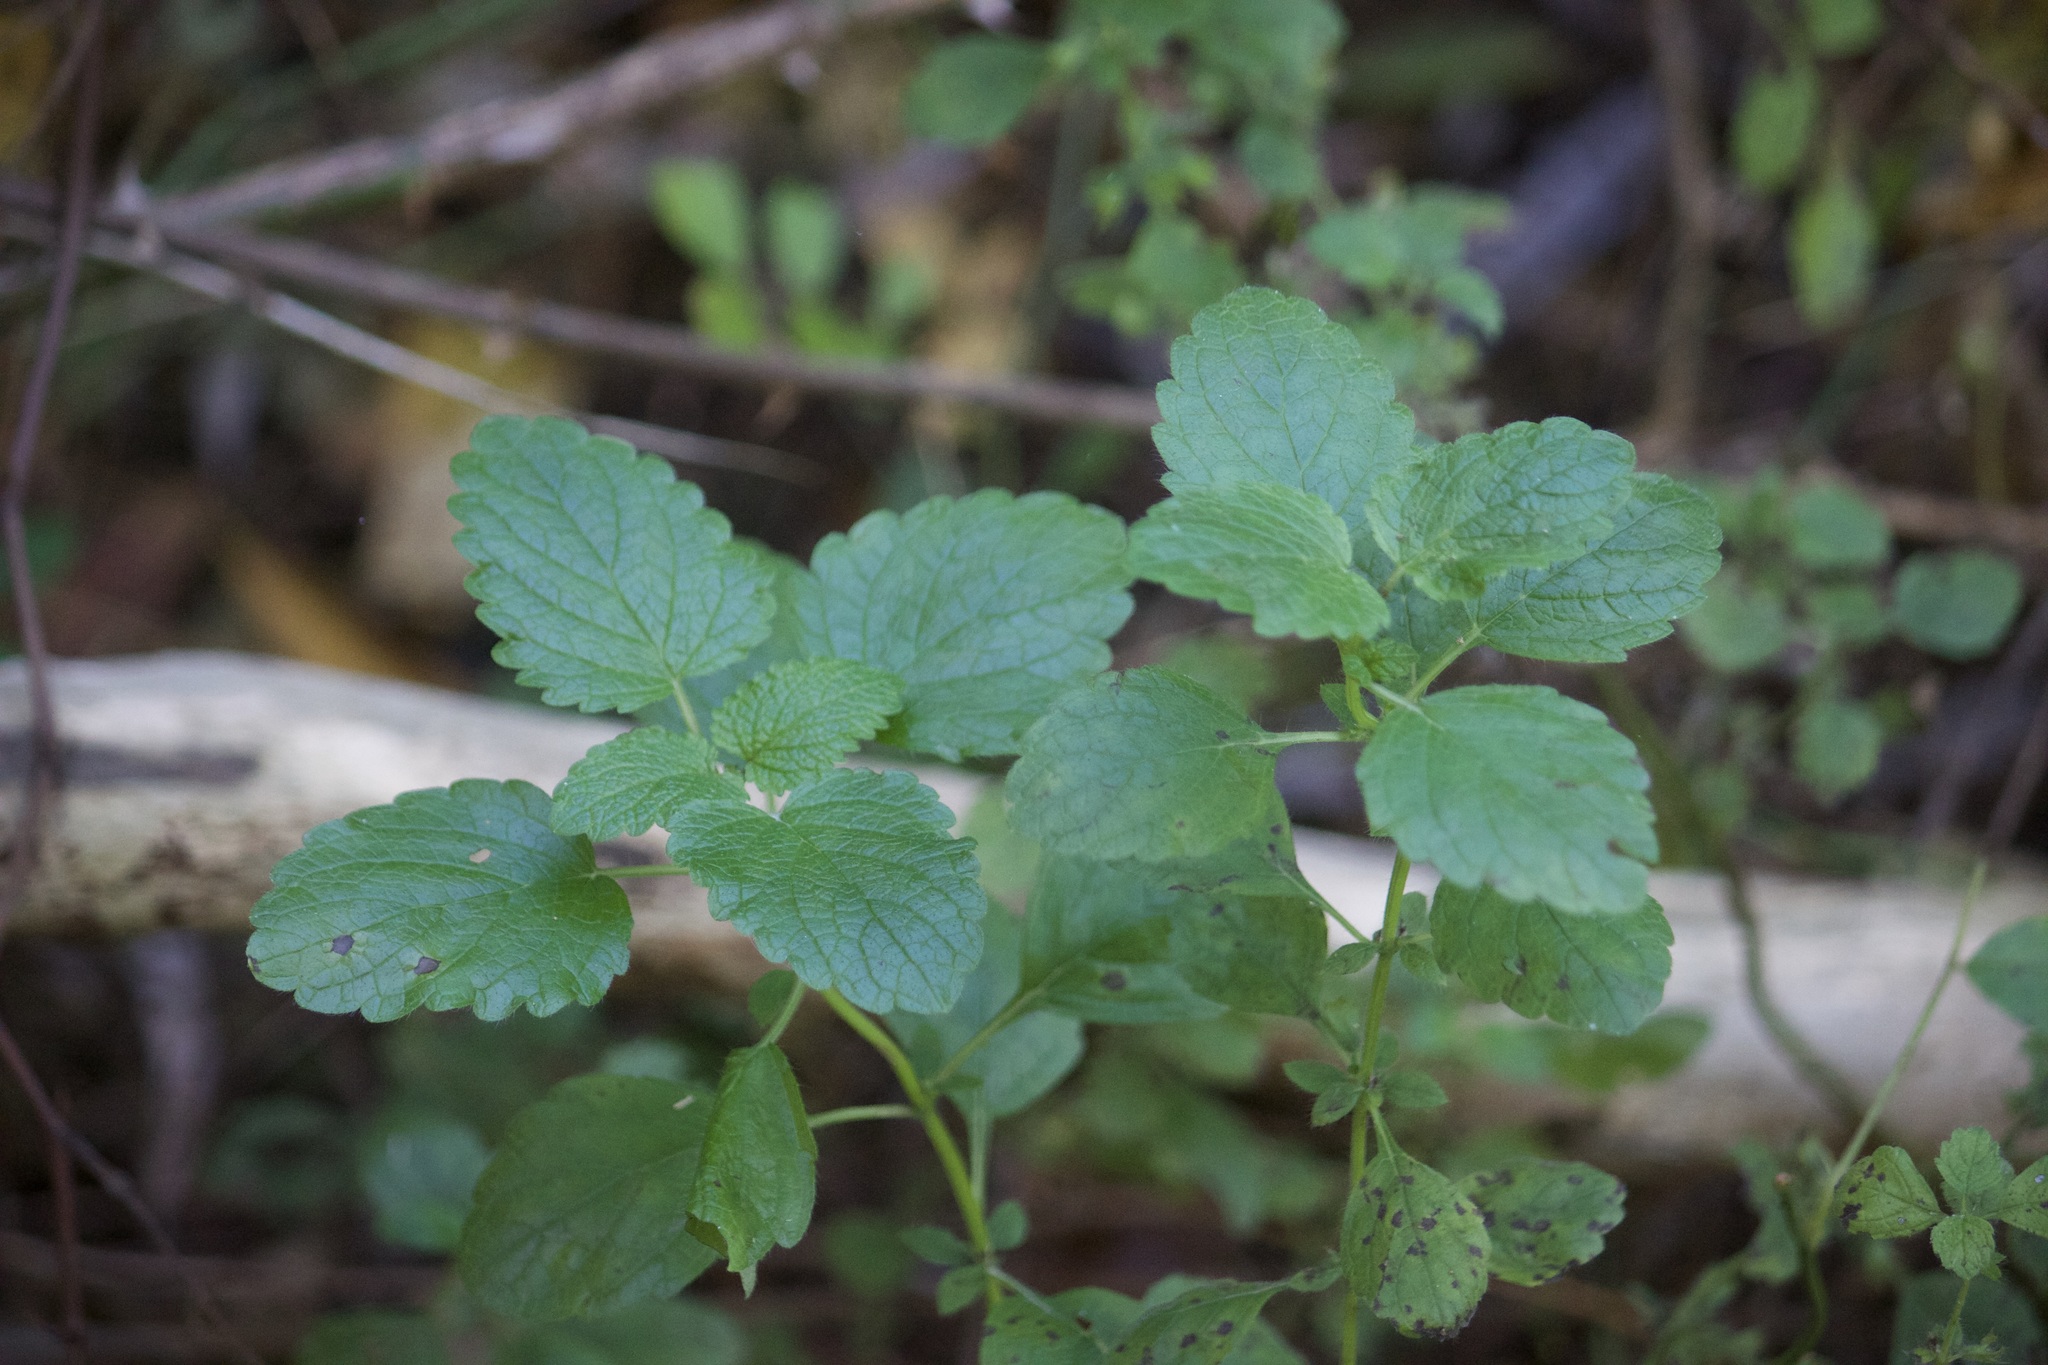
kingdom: Plantae
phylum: Tracheophyta
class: Magnoliopsida
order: Lamiales
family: Lamiaceae
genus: Melissa
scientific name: Melissa officinalis
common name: Balm
